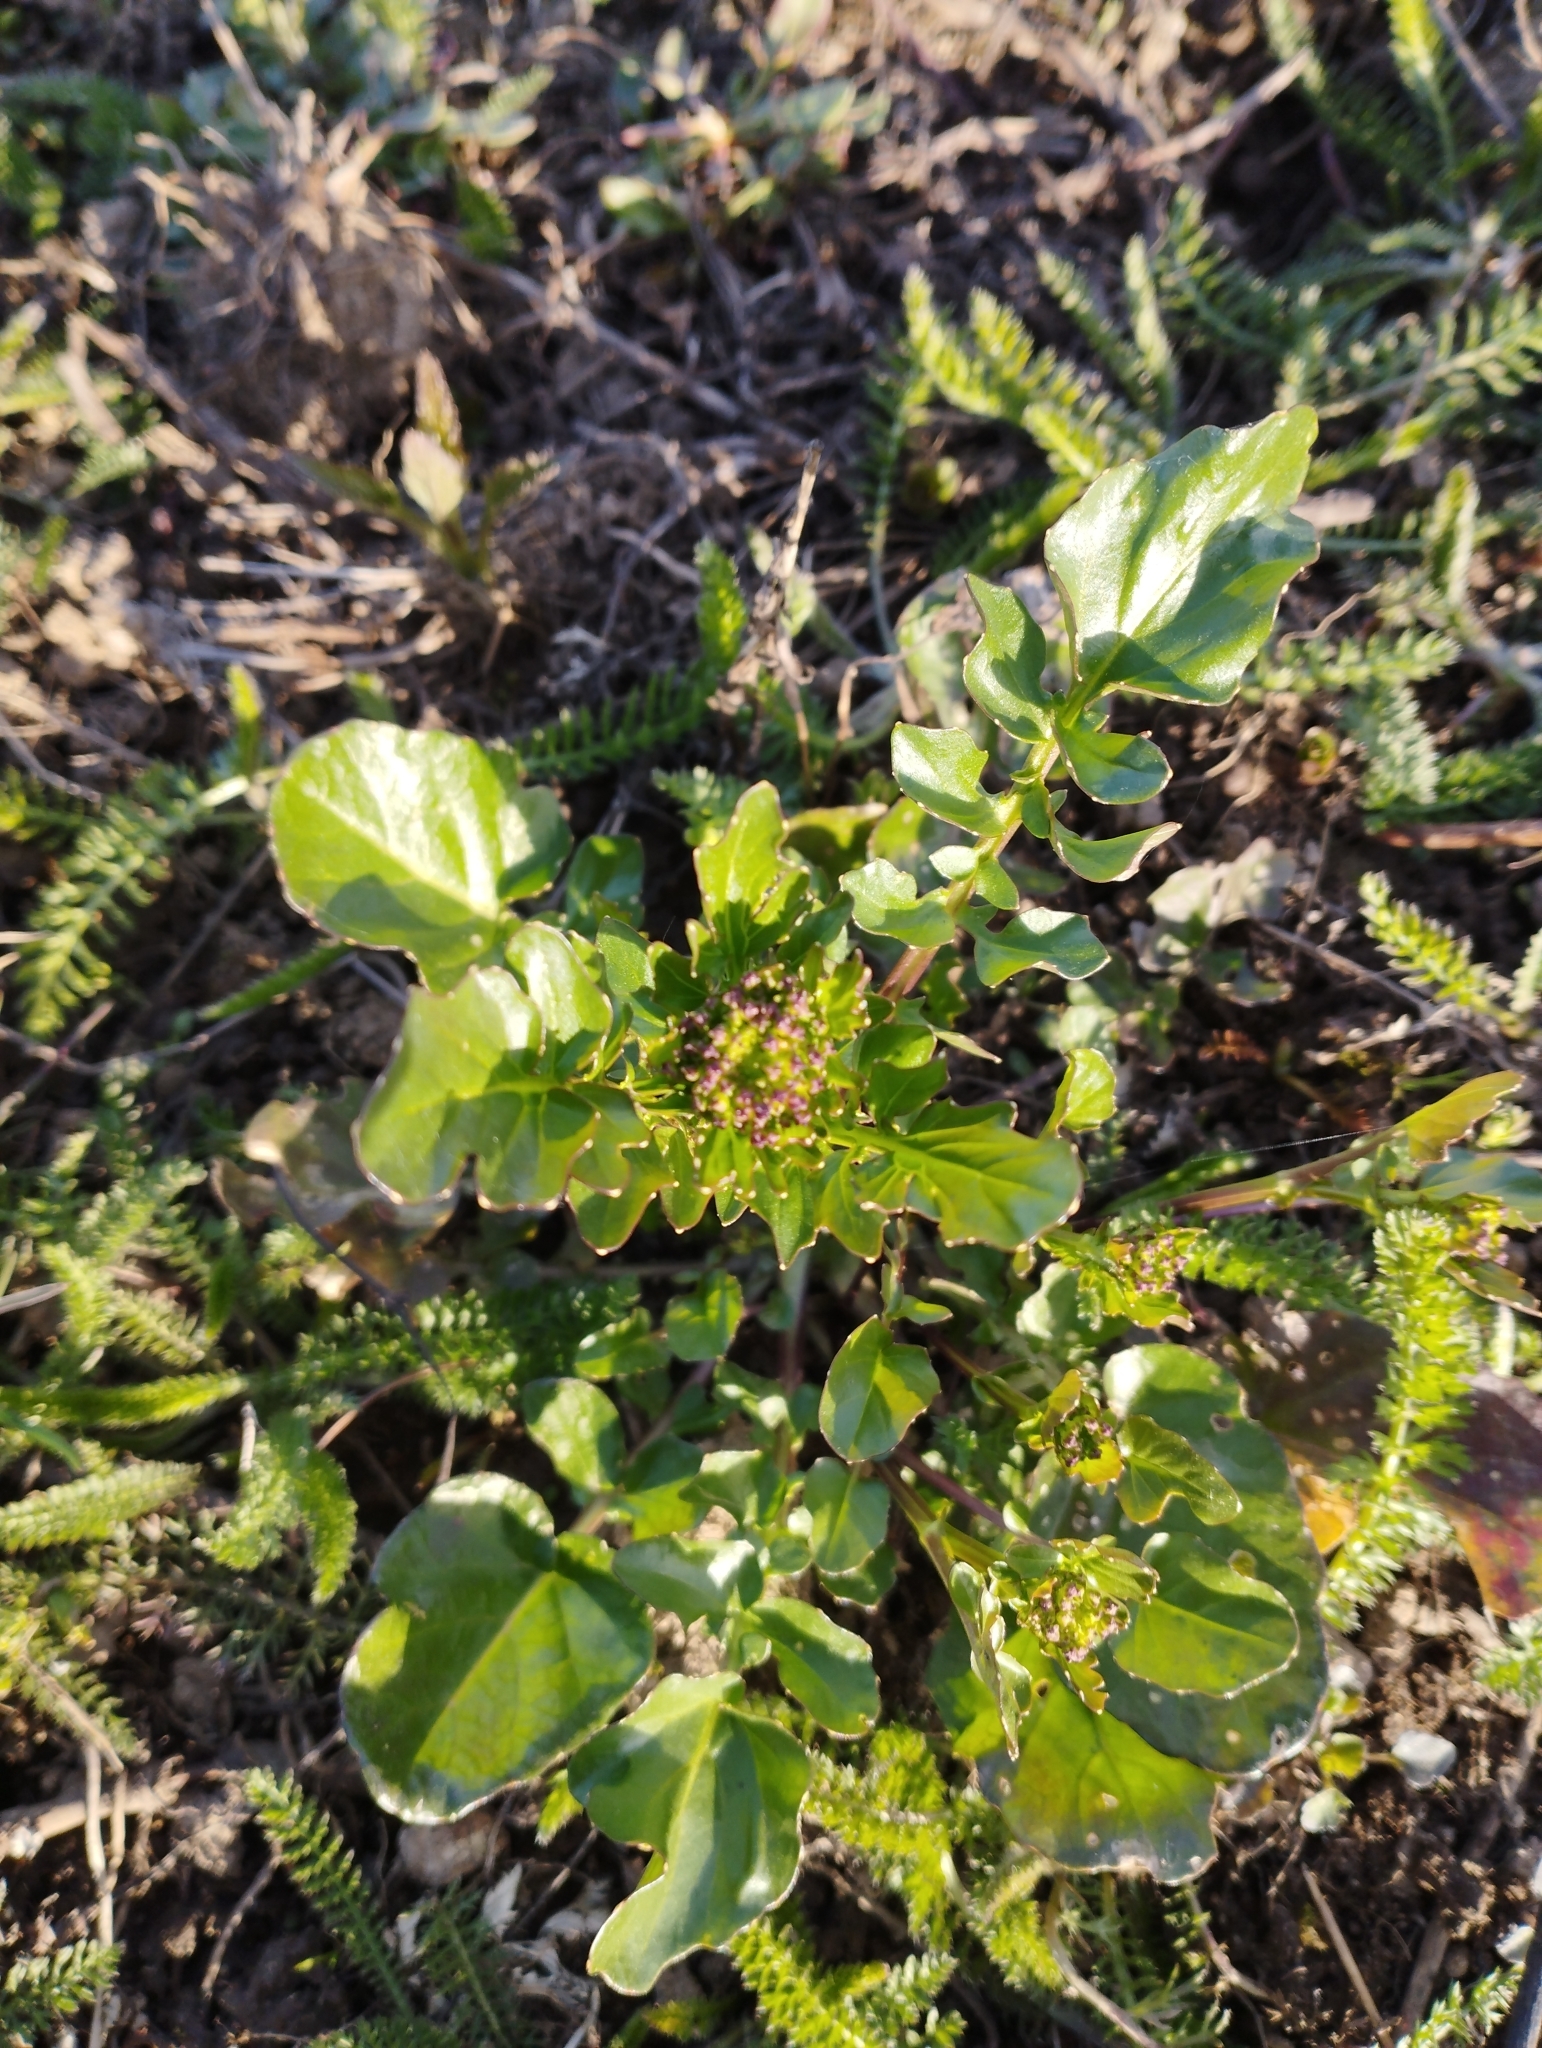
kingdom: Plantae
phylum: Tracheophyta
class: Magnoliopsida
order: Brassicales
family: Brassicaceae
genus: Barbarea
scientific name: Barbarea vulgaris
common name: Cressy-greens
